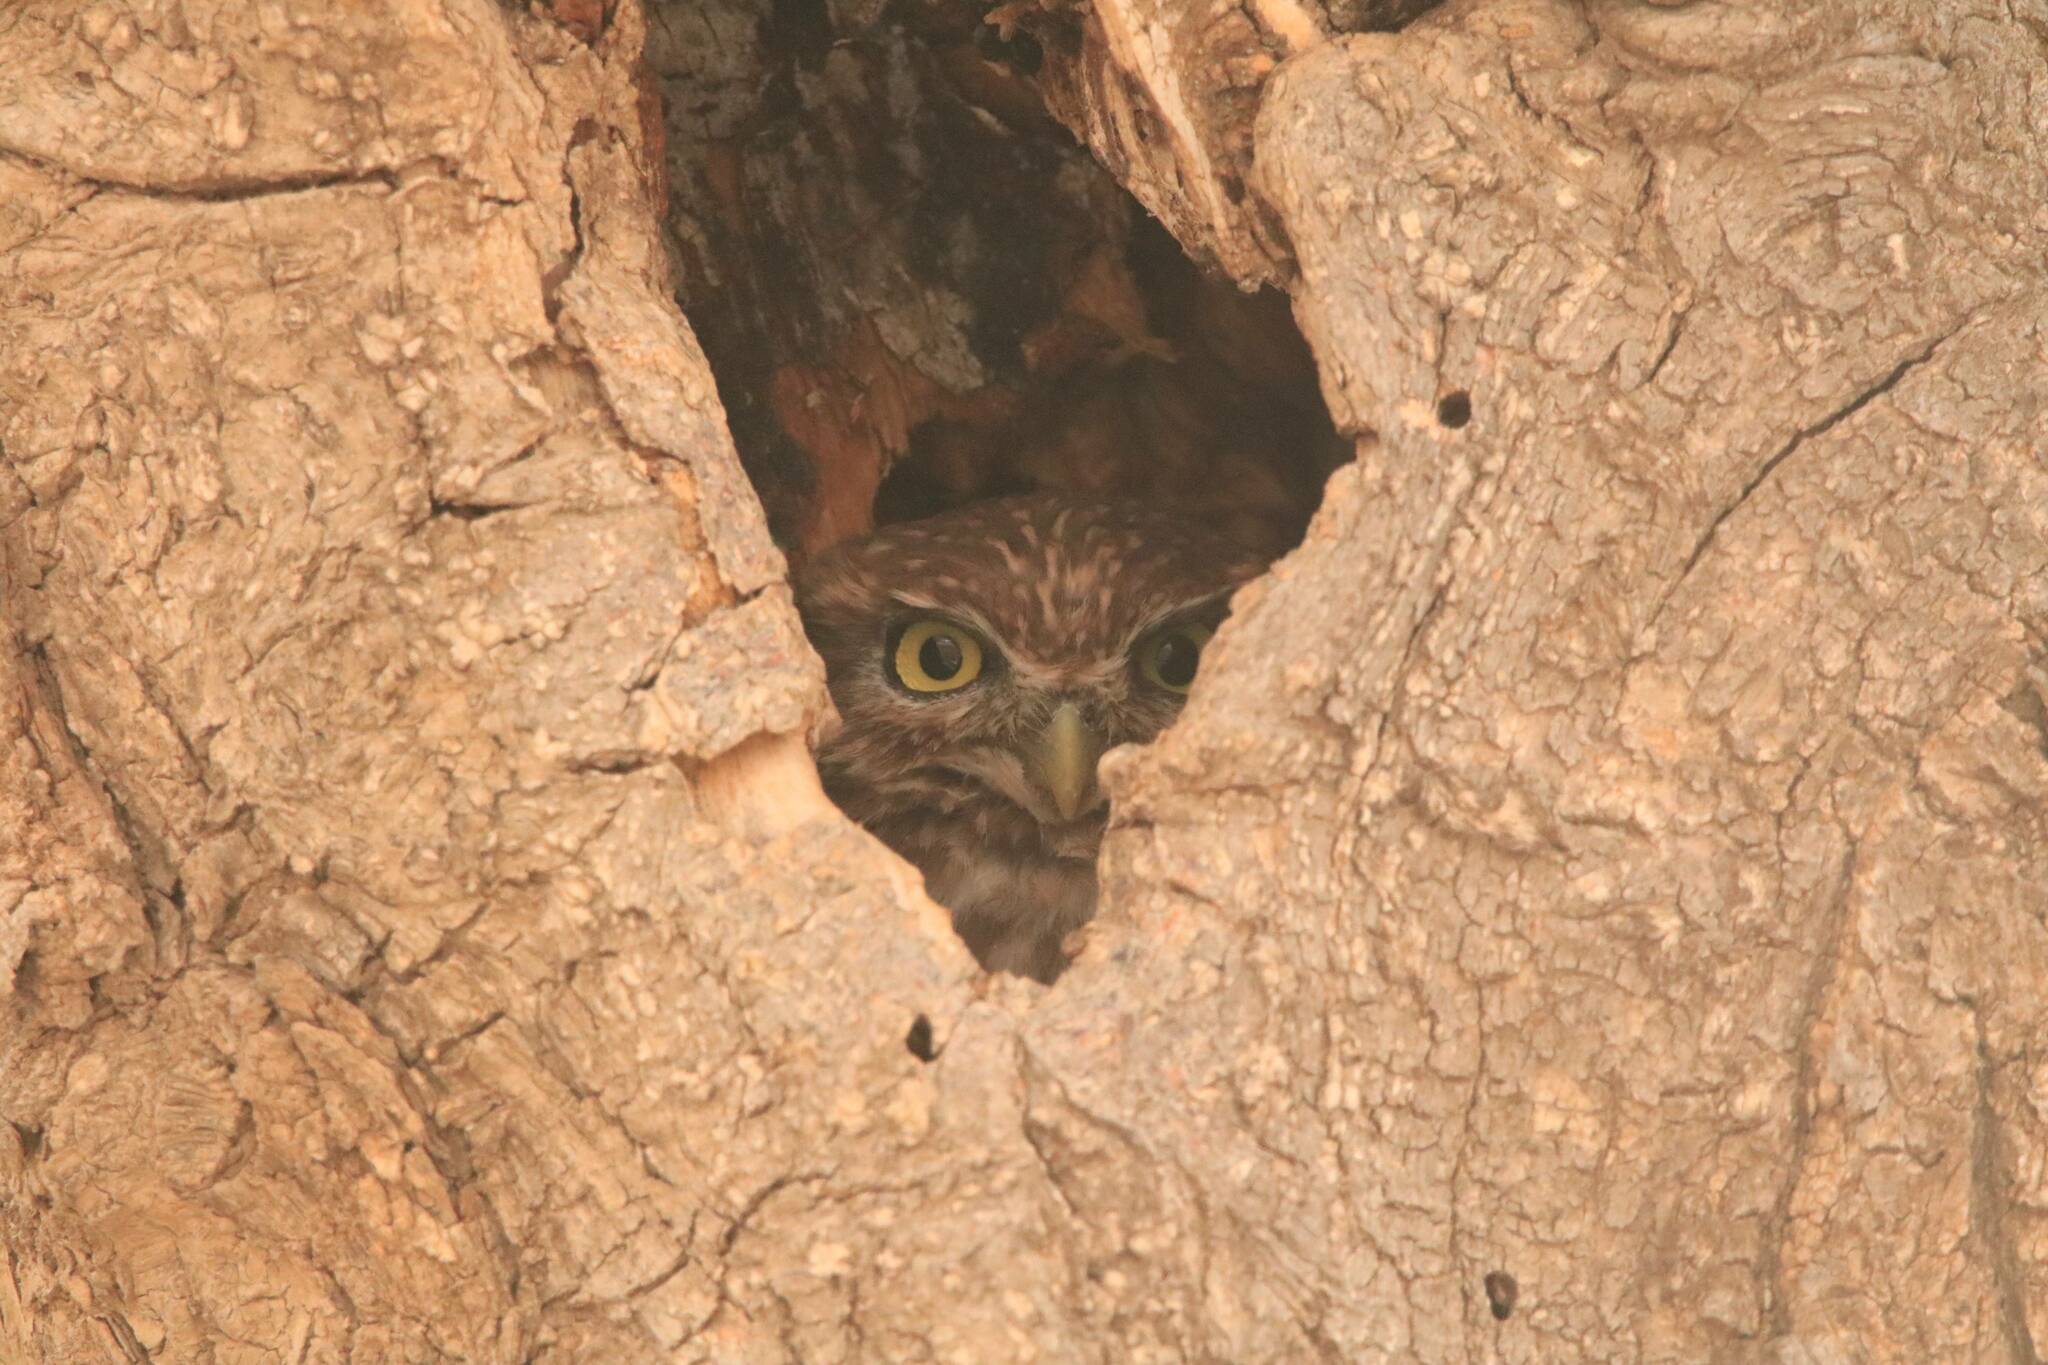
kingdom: Animalia
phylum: Chordata
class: Aves
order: Strigiformes
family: Strigidae
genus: Athene
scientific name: Athene noctua
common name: Little owl
